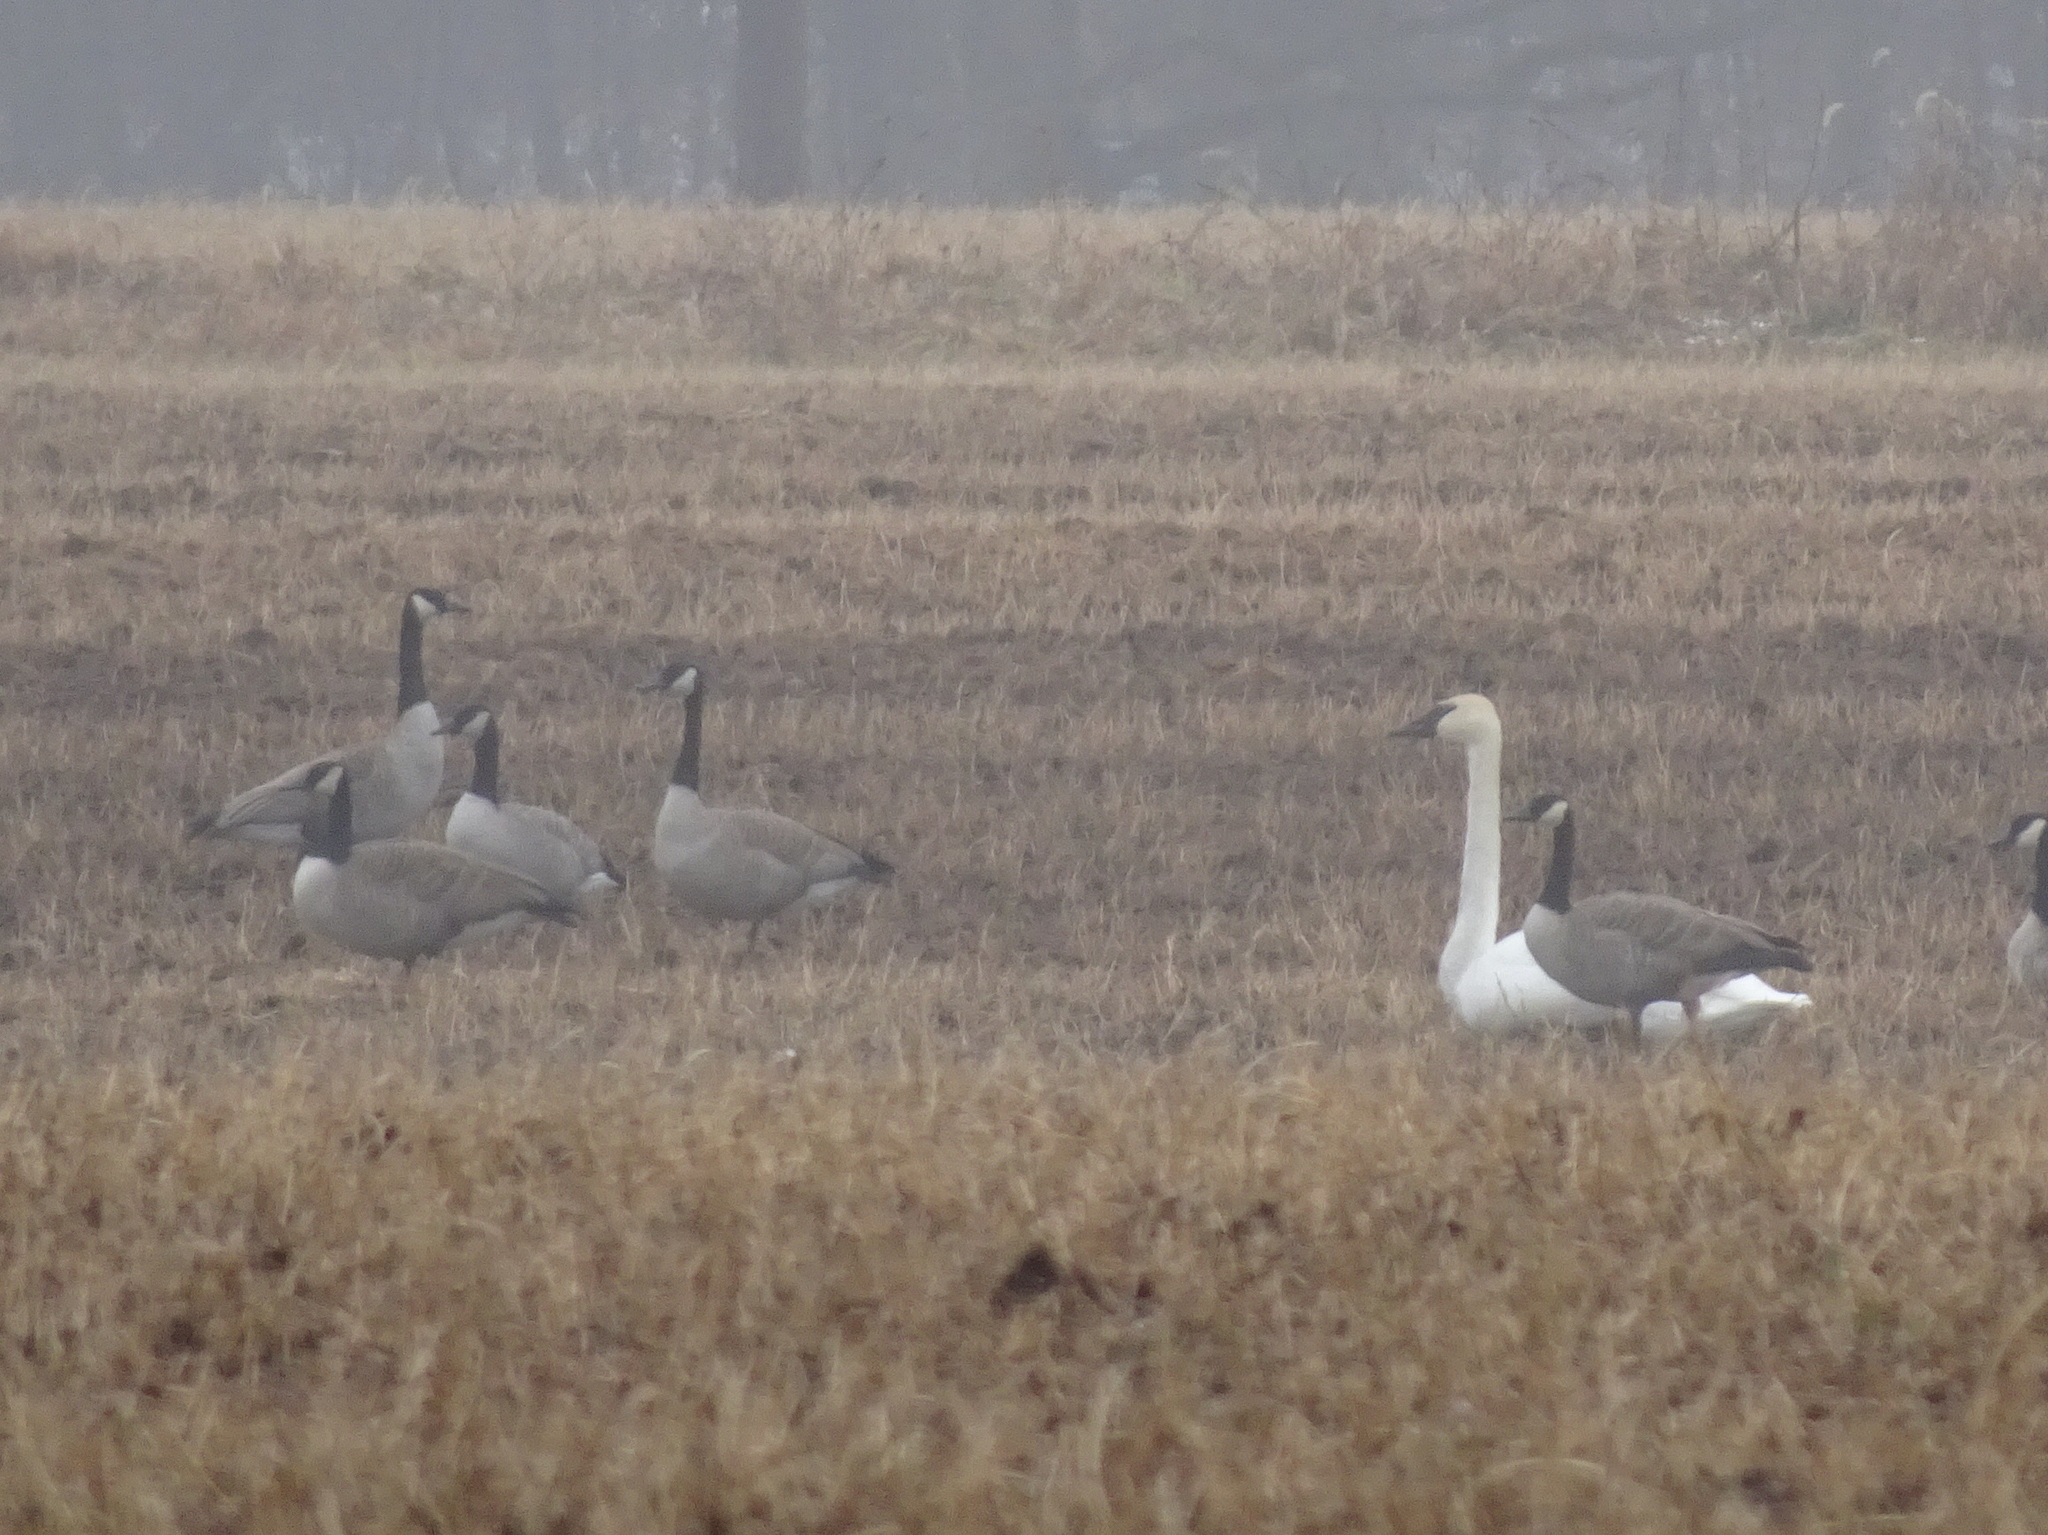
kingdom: Animalia
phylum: Chordata
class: Aves
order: Anseriformes
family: Anatidae
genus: Branta
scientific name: Branta canadensis
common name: Canada goose
